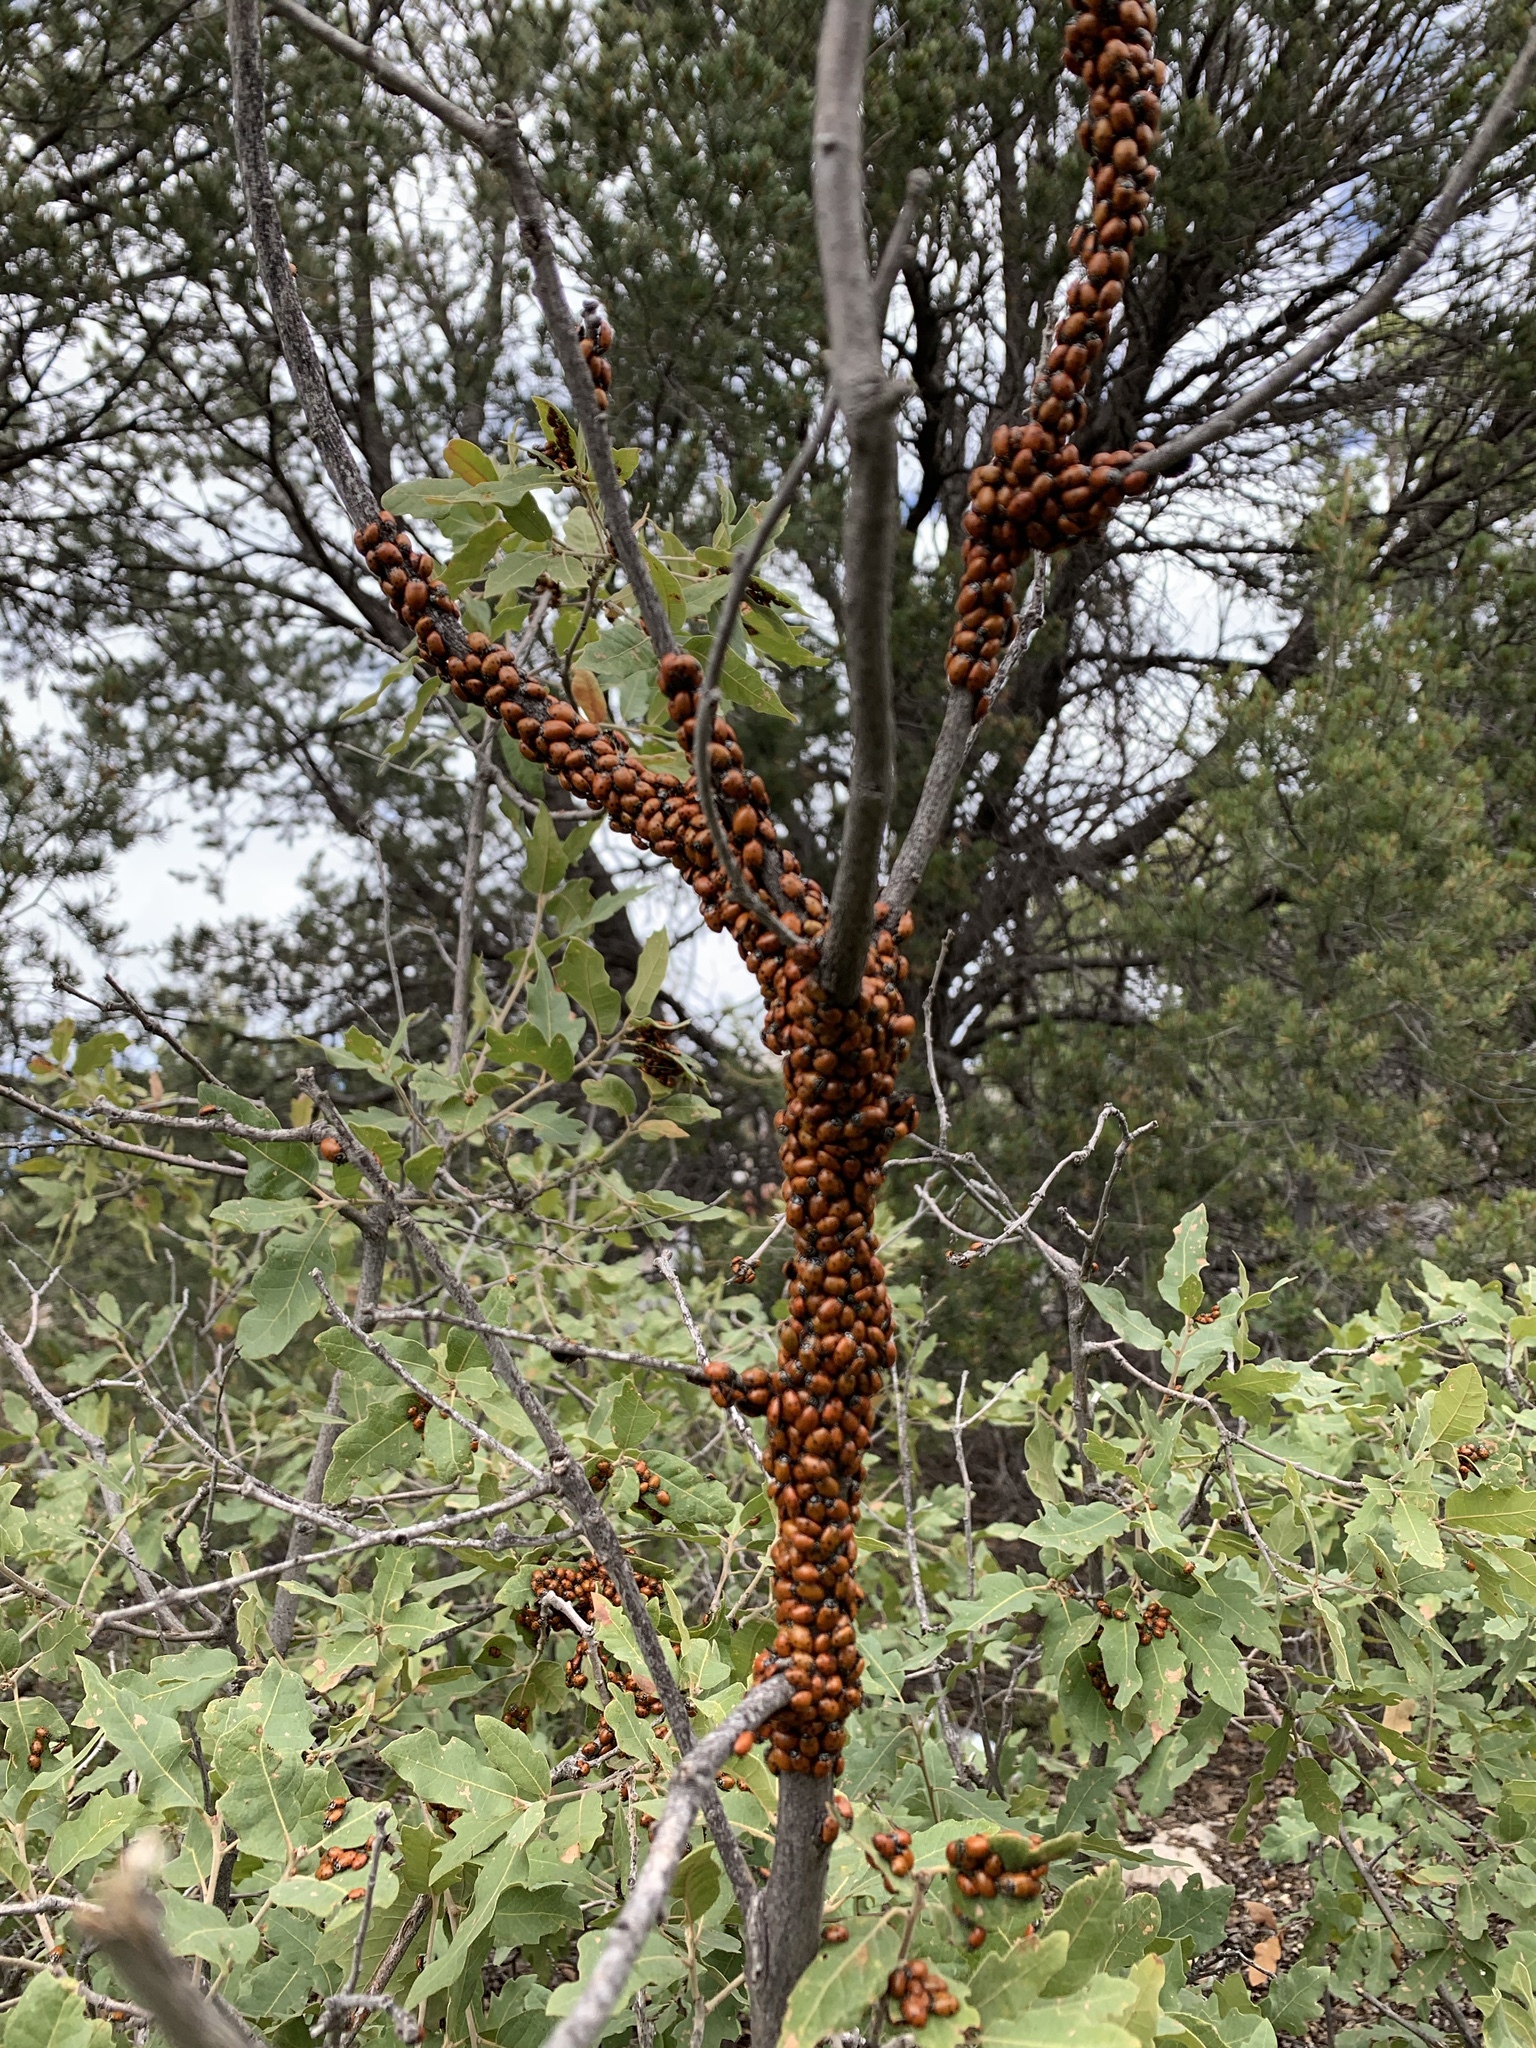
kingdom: Animalia
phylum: Arthropoda
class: Insecta
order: Coleoptera
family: Coccinellidae
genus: Hippodamia
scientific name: Hippodamia convergens
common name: Convergent lady beetle
